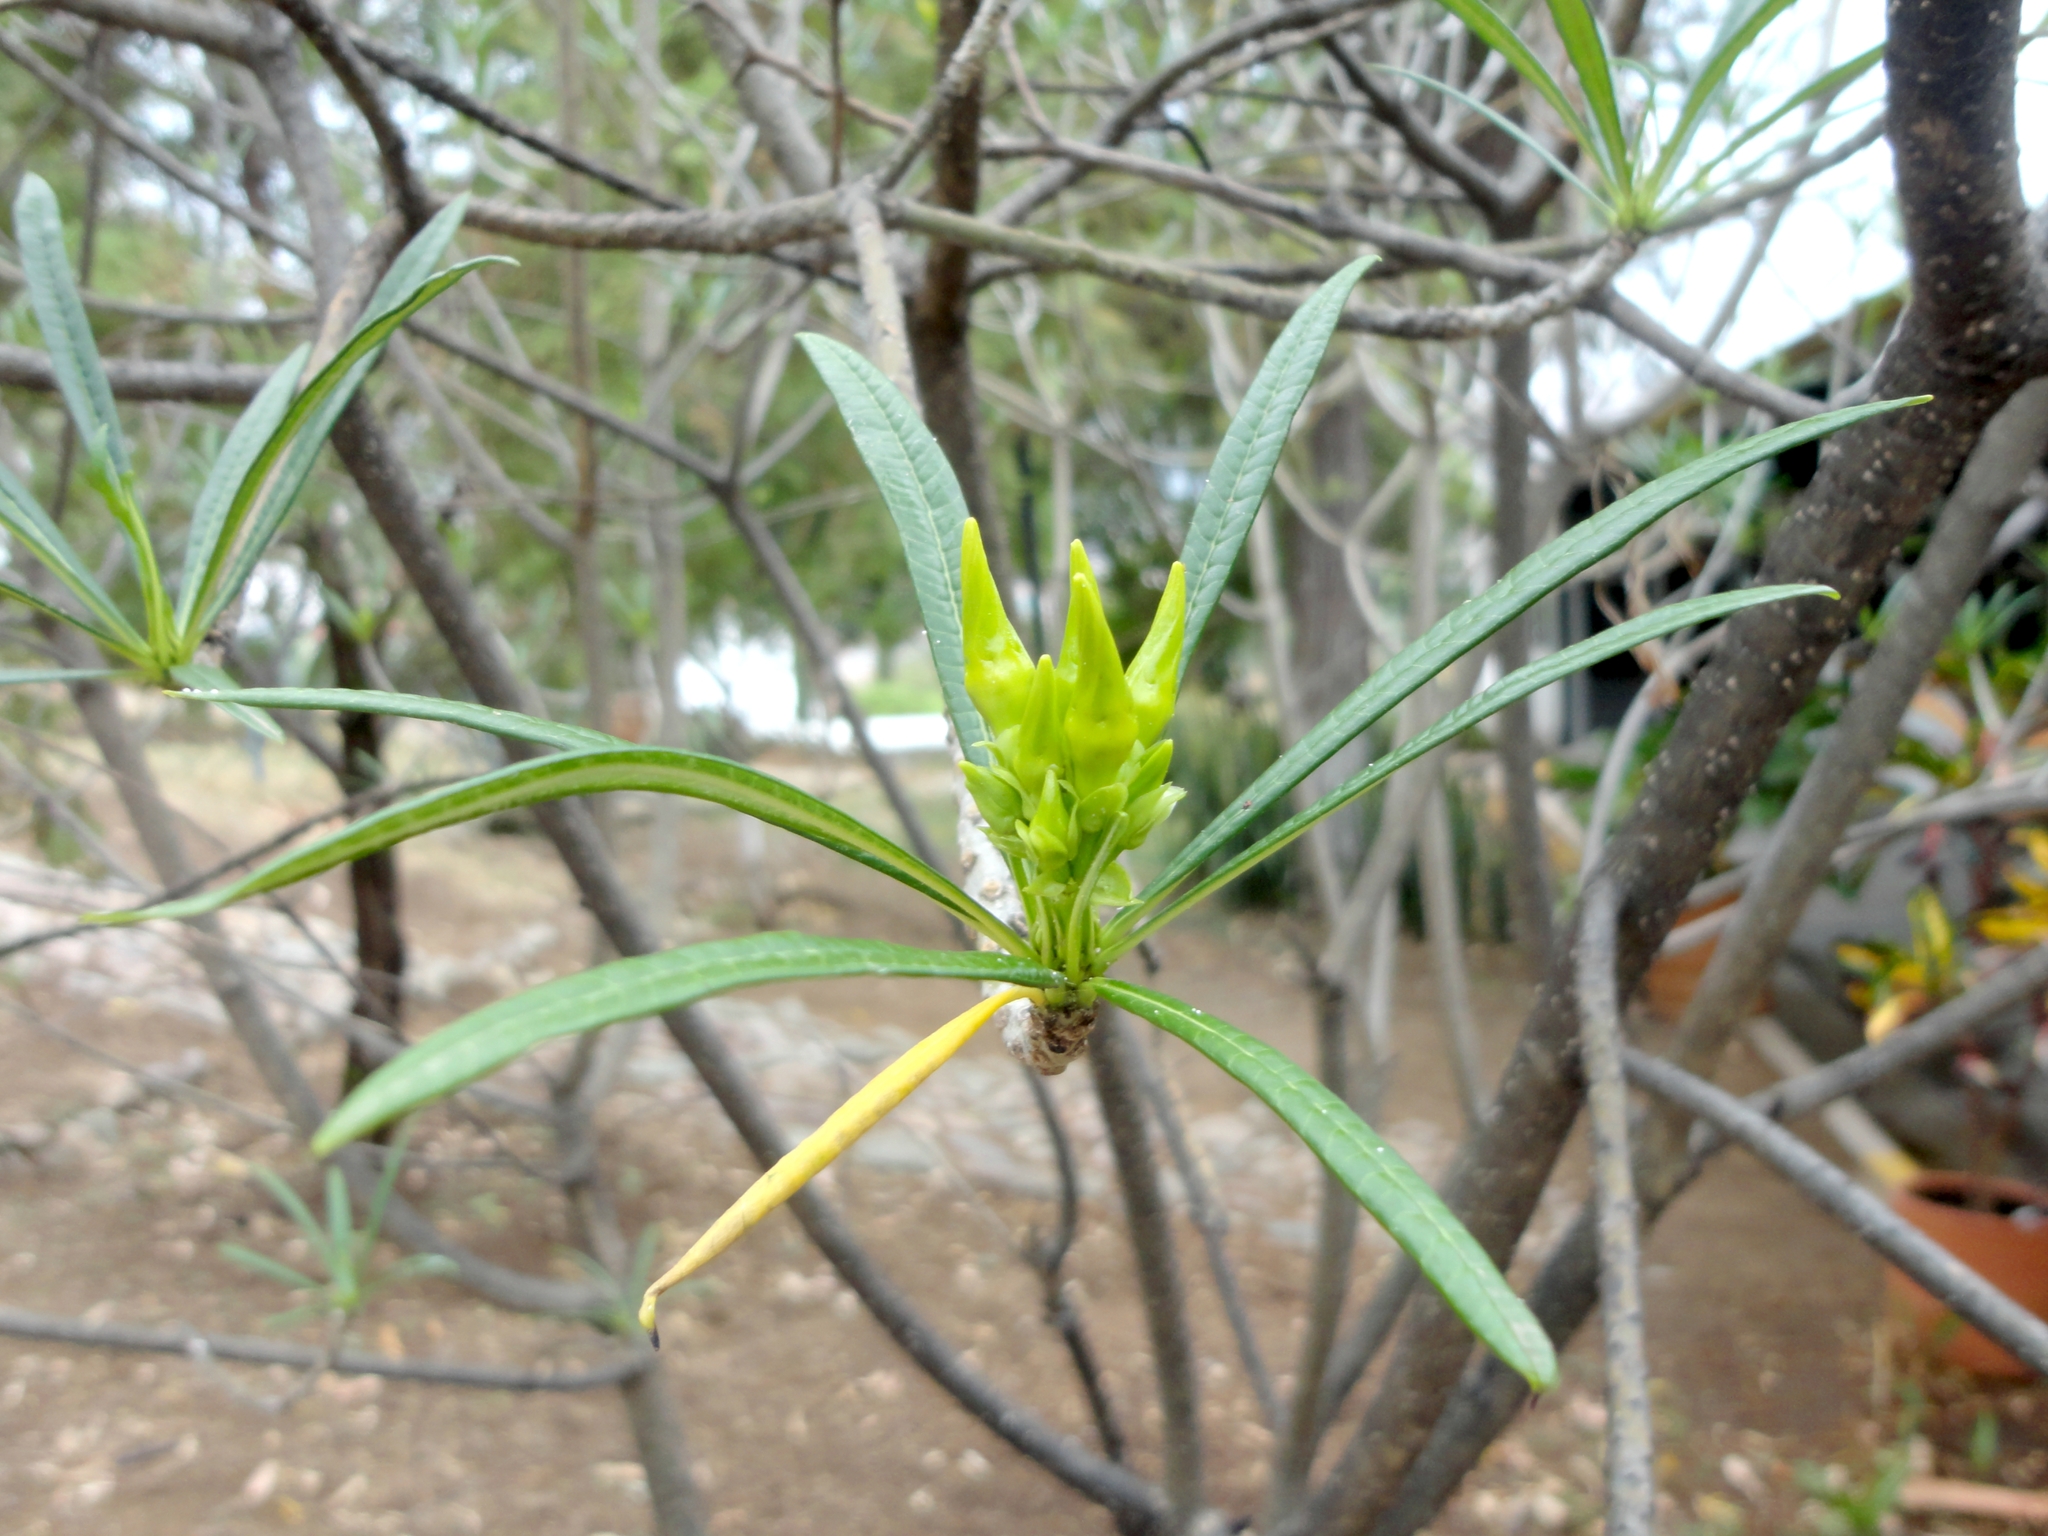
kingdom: Plantae
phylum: Tracheophyta
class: Magnoliopsida
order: Gentianales
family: Apocynaceae
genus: Cascabela
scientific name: Cascabela thevetioides
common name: Yellow oleander
